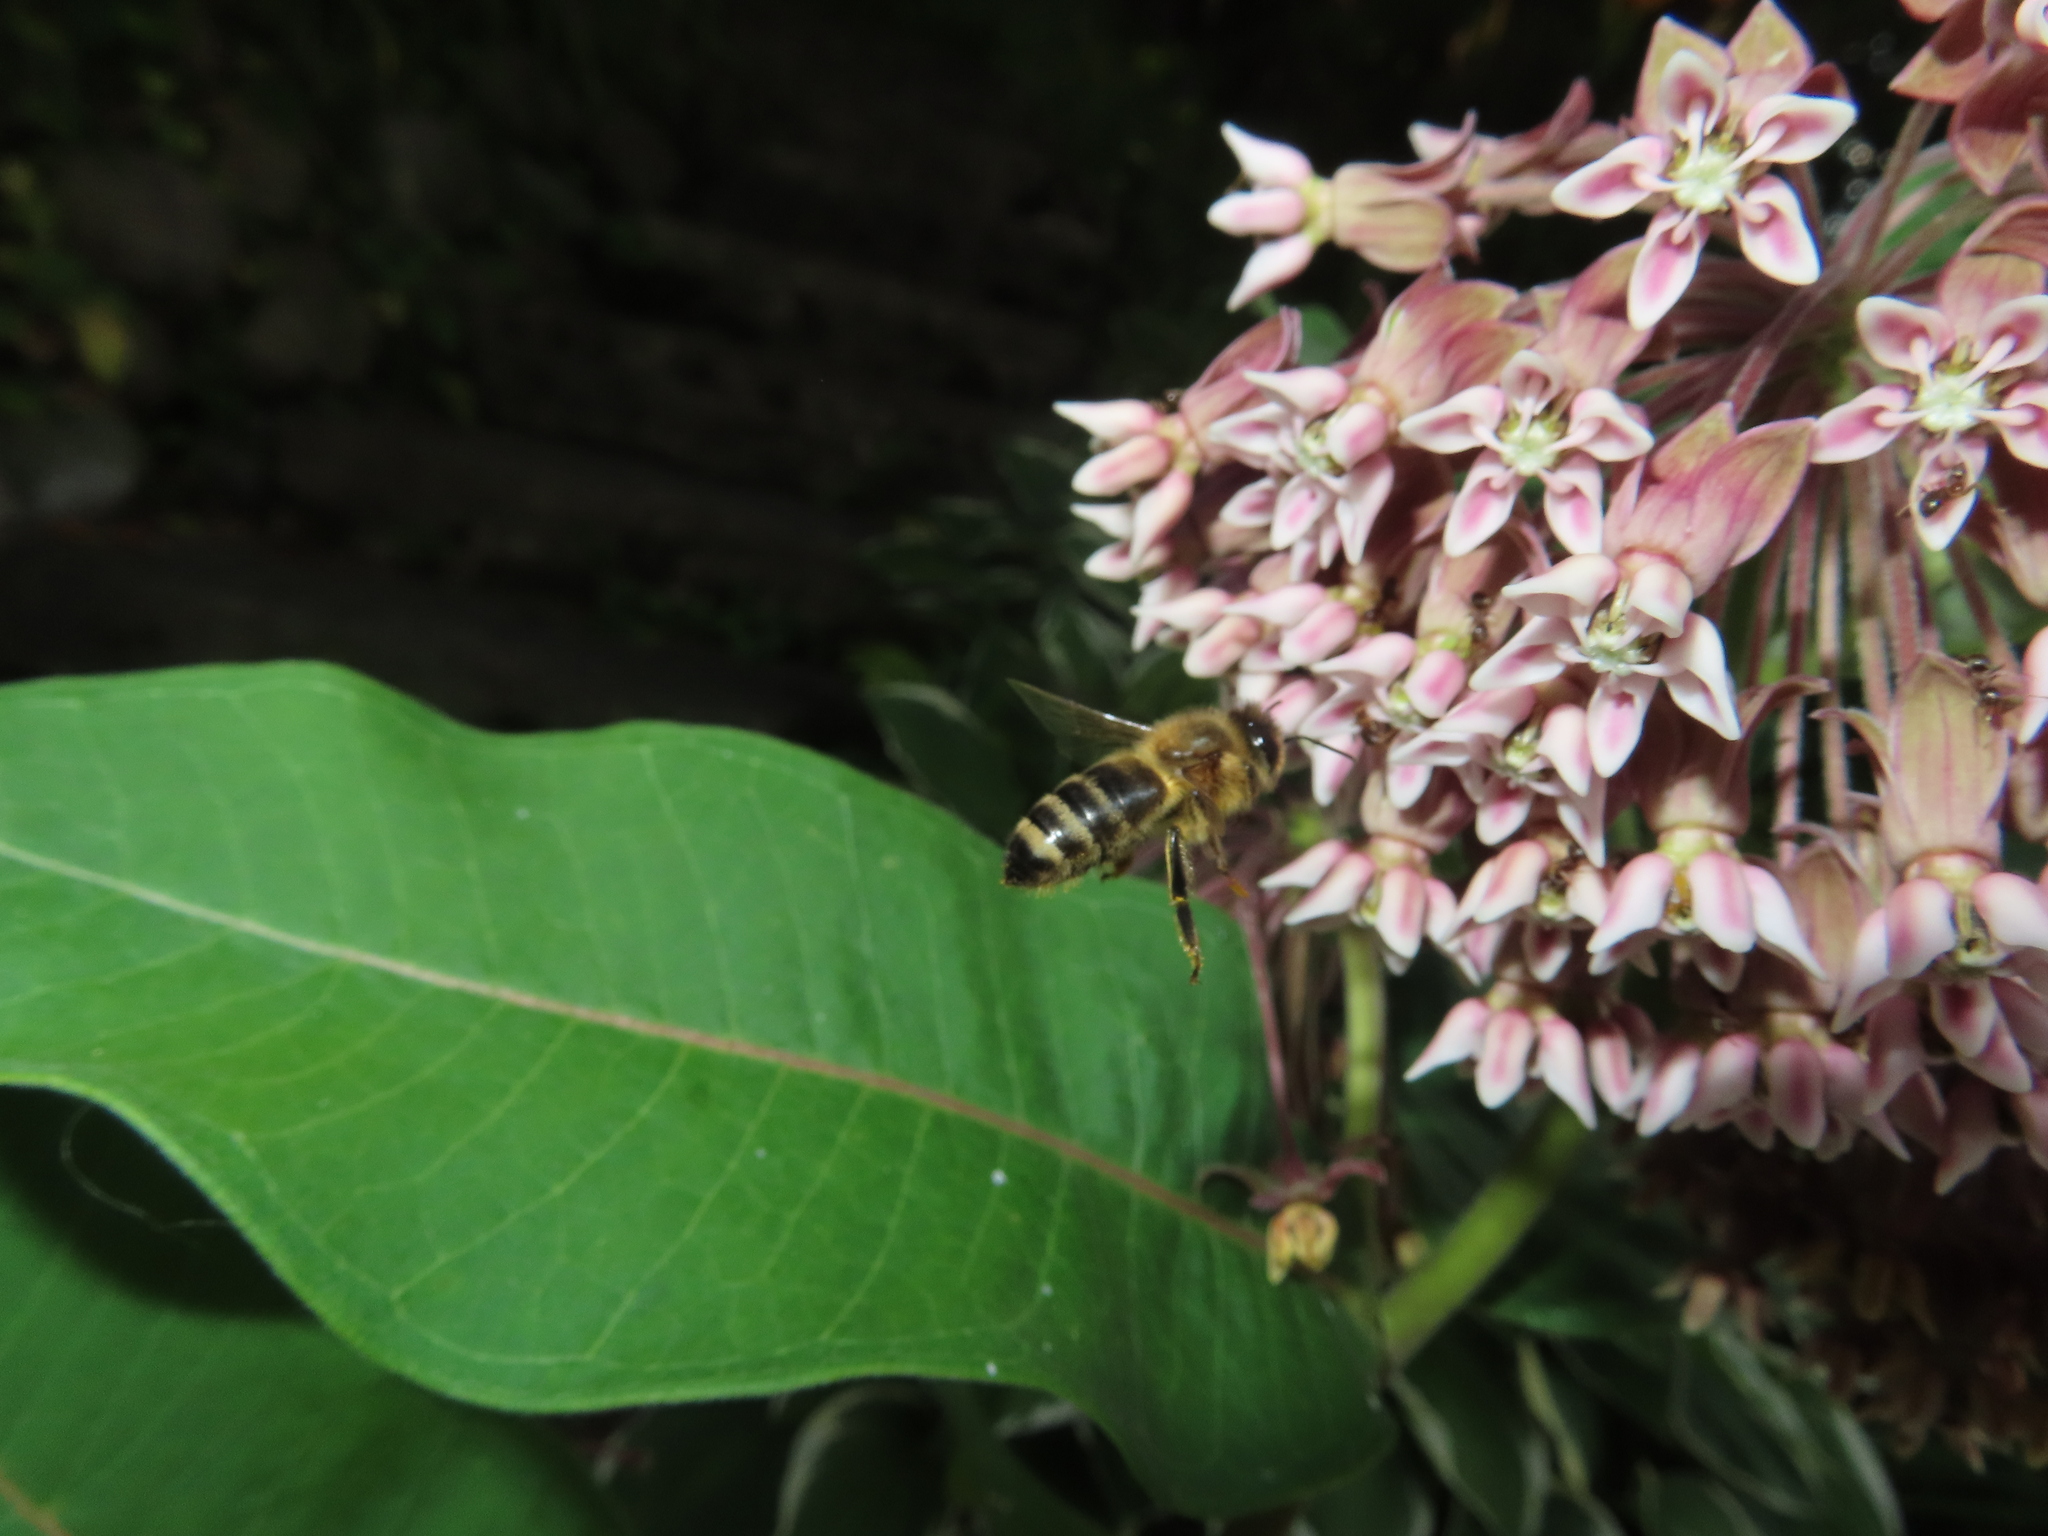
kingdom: Animalia
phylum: Arthropoda
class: Insecta
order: Hymenoptera
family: Apidae
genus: Apis
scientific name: Apis mellifera
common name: Honey bee
